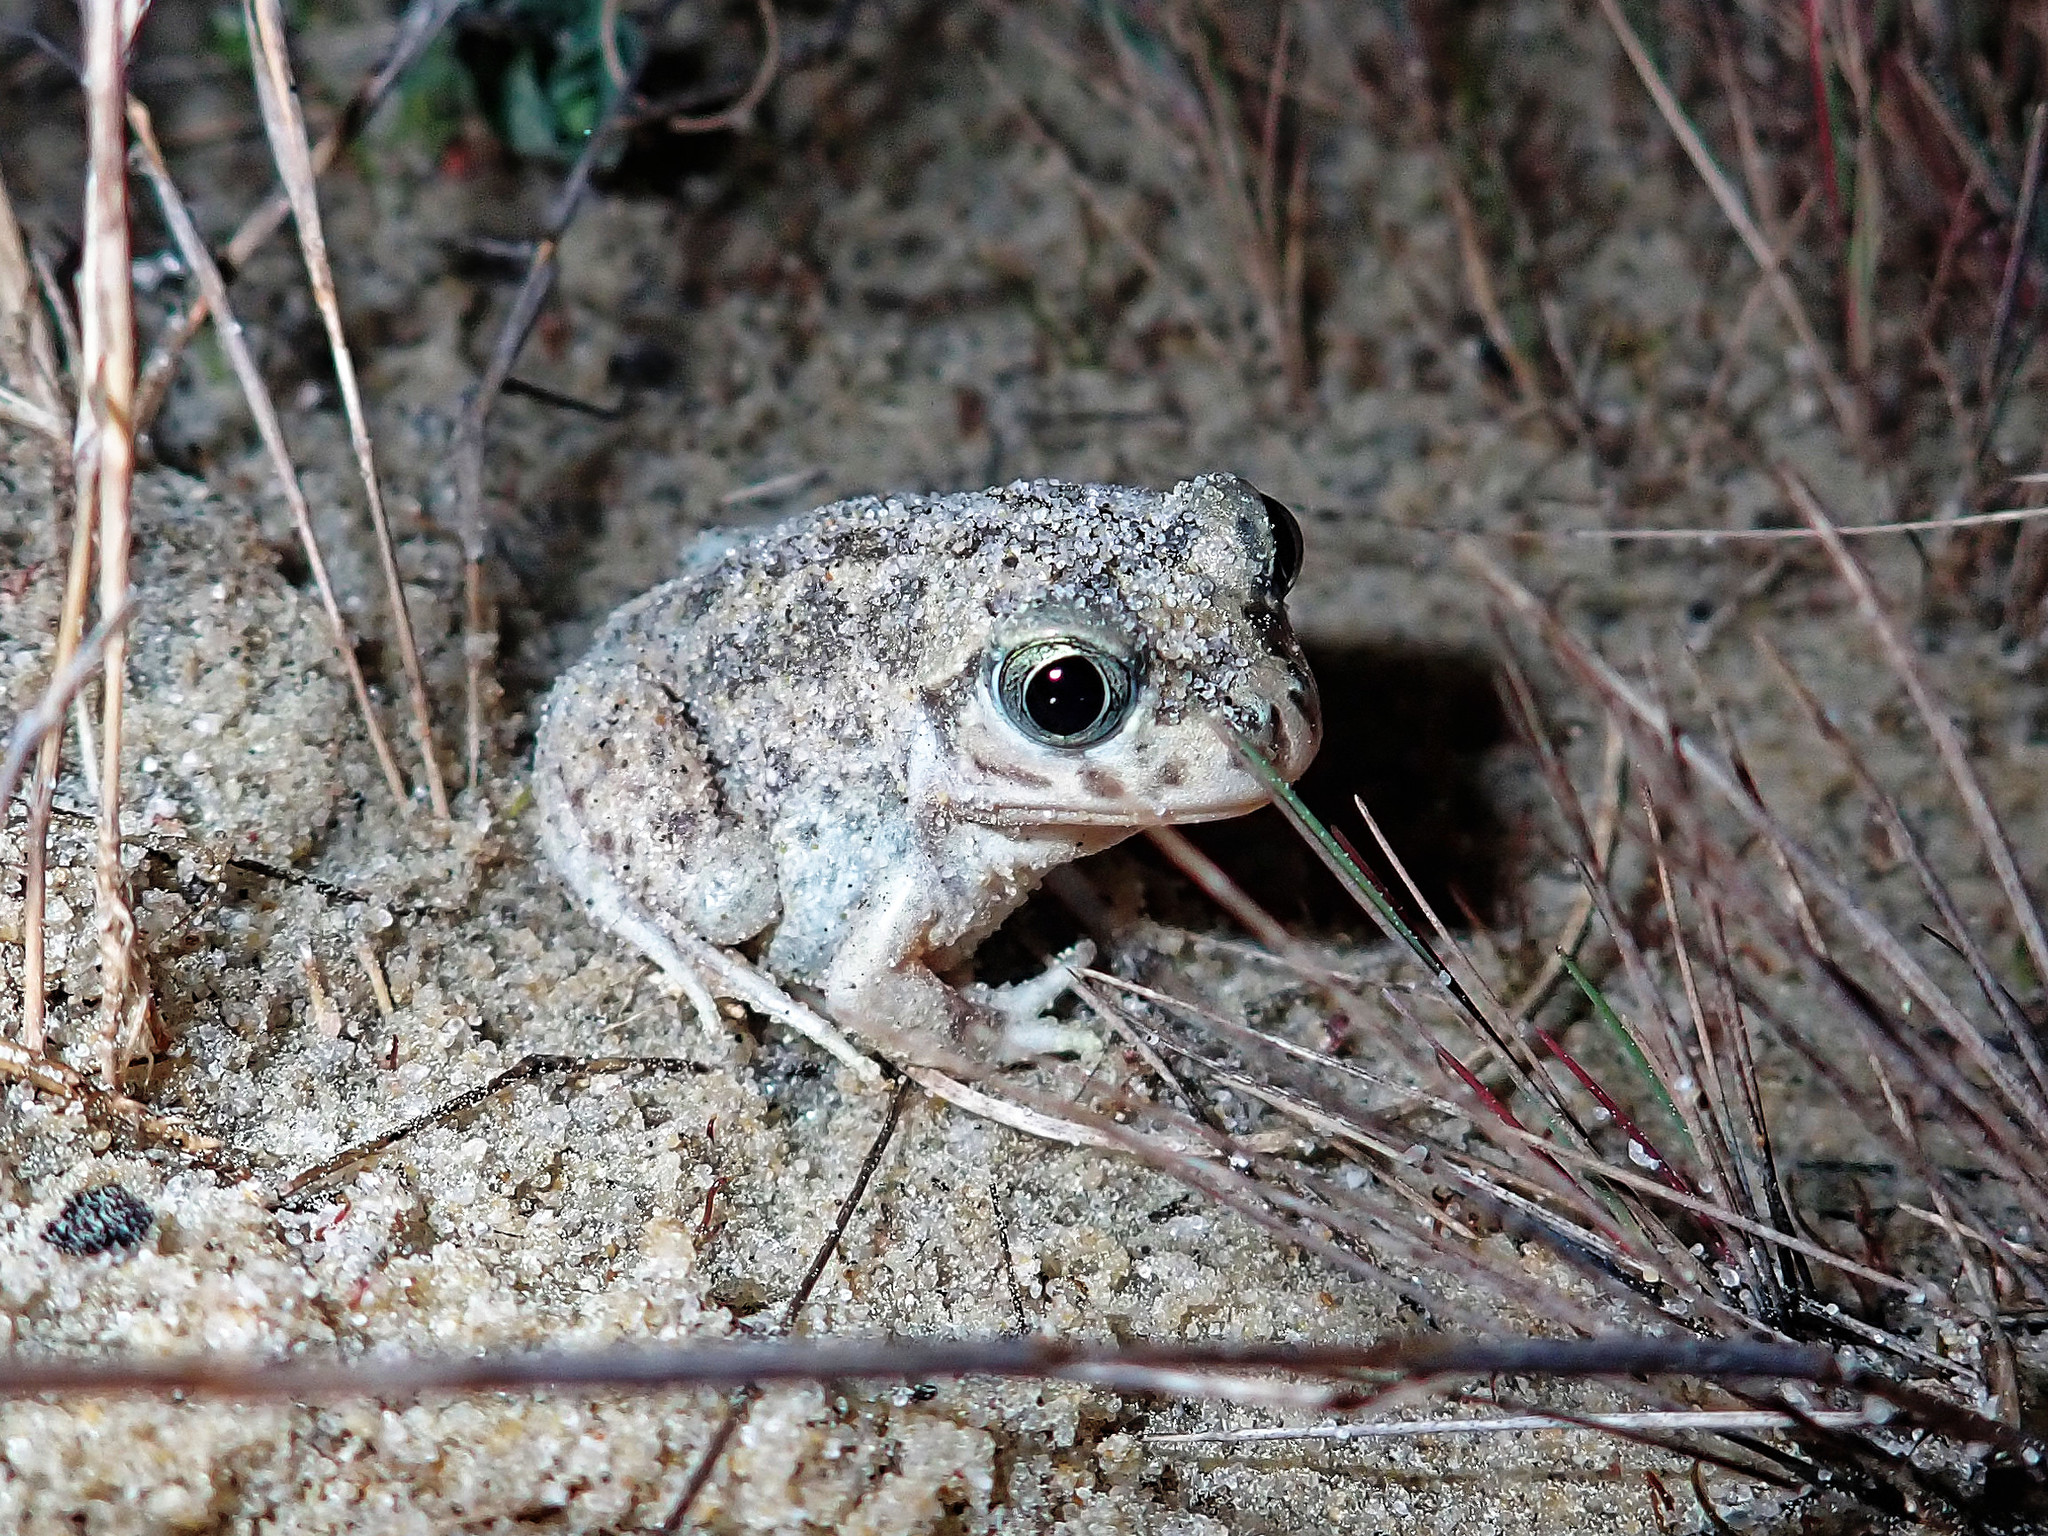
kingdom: Animalia
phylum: Chordata
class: Amphibia
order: Anura
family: Pelobatidae
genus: Pelobates
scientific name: Pelobates cultripes
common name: Western spadefoot
